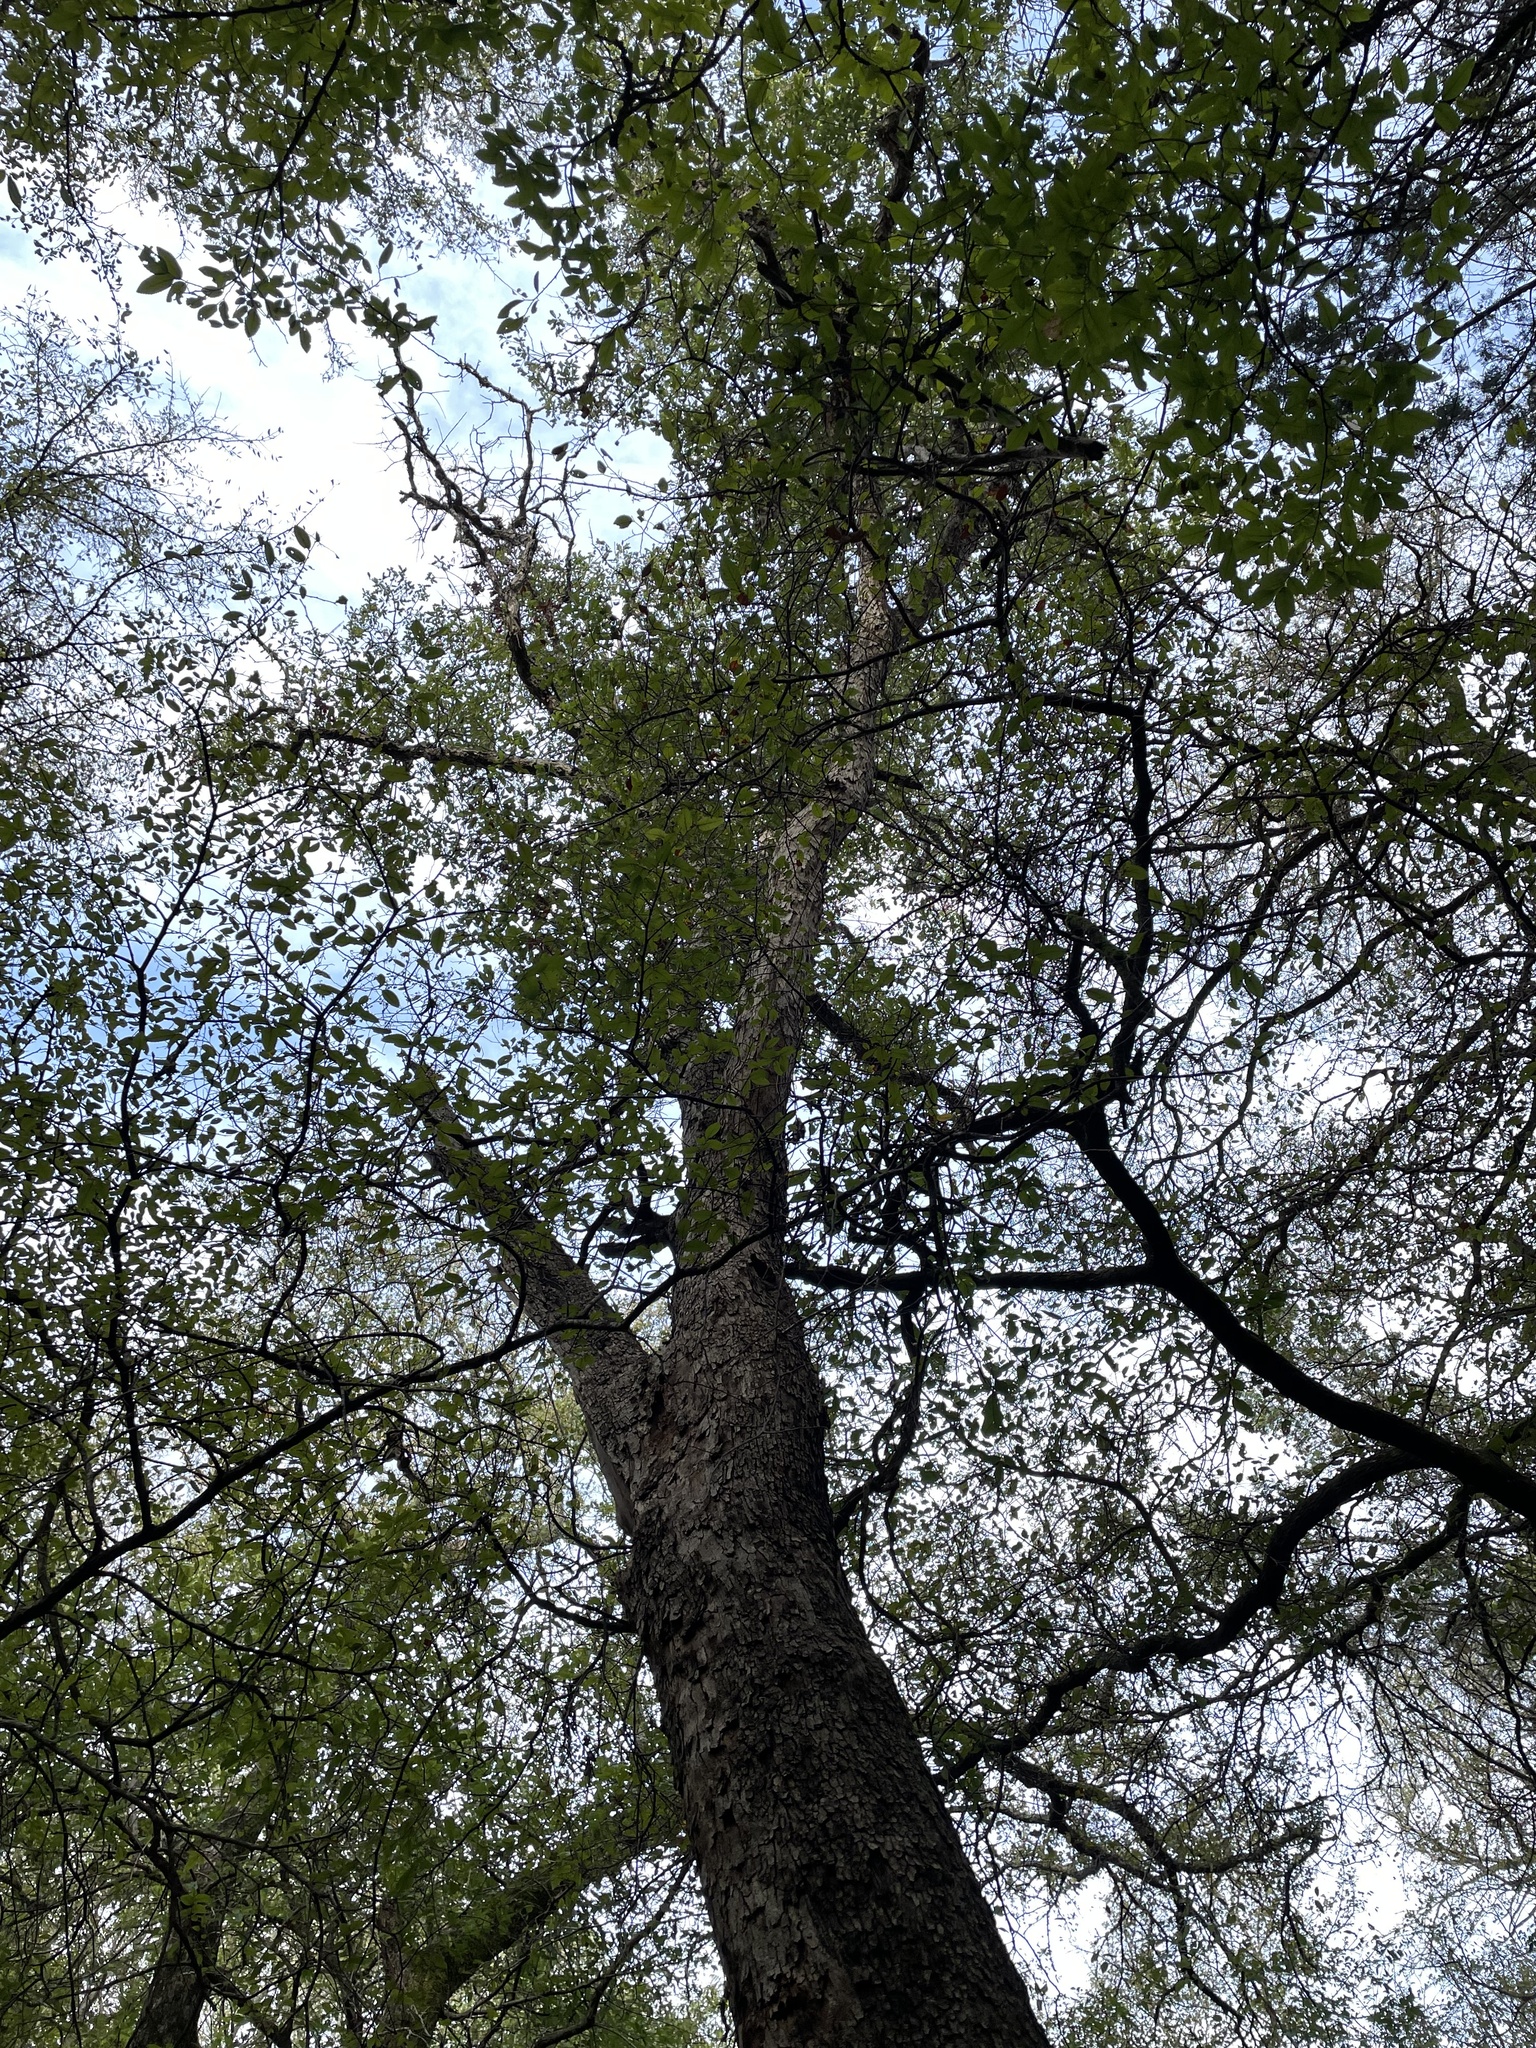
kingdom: Plantae
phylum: Tracheophyta
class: Magnoliopsida
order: Fagales
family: Fagaceae
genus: Quercus
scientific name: Quercus sinuata
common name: Durand oak
